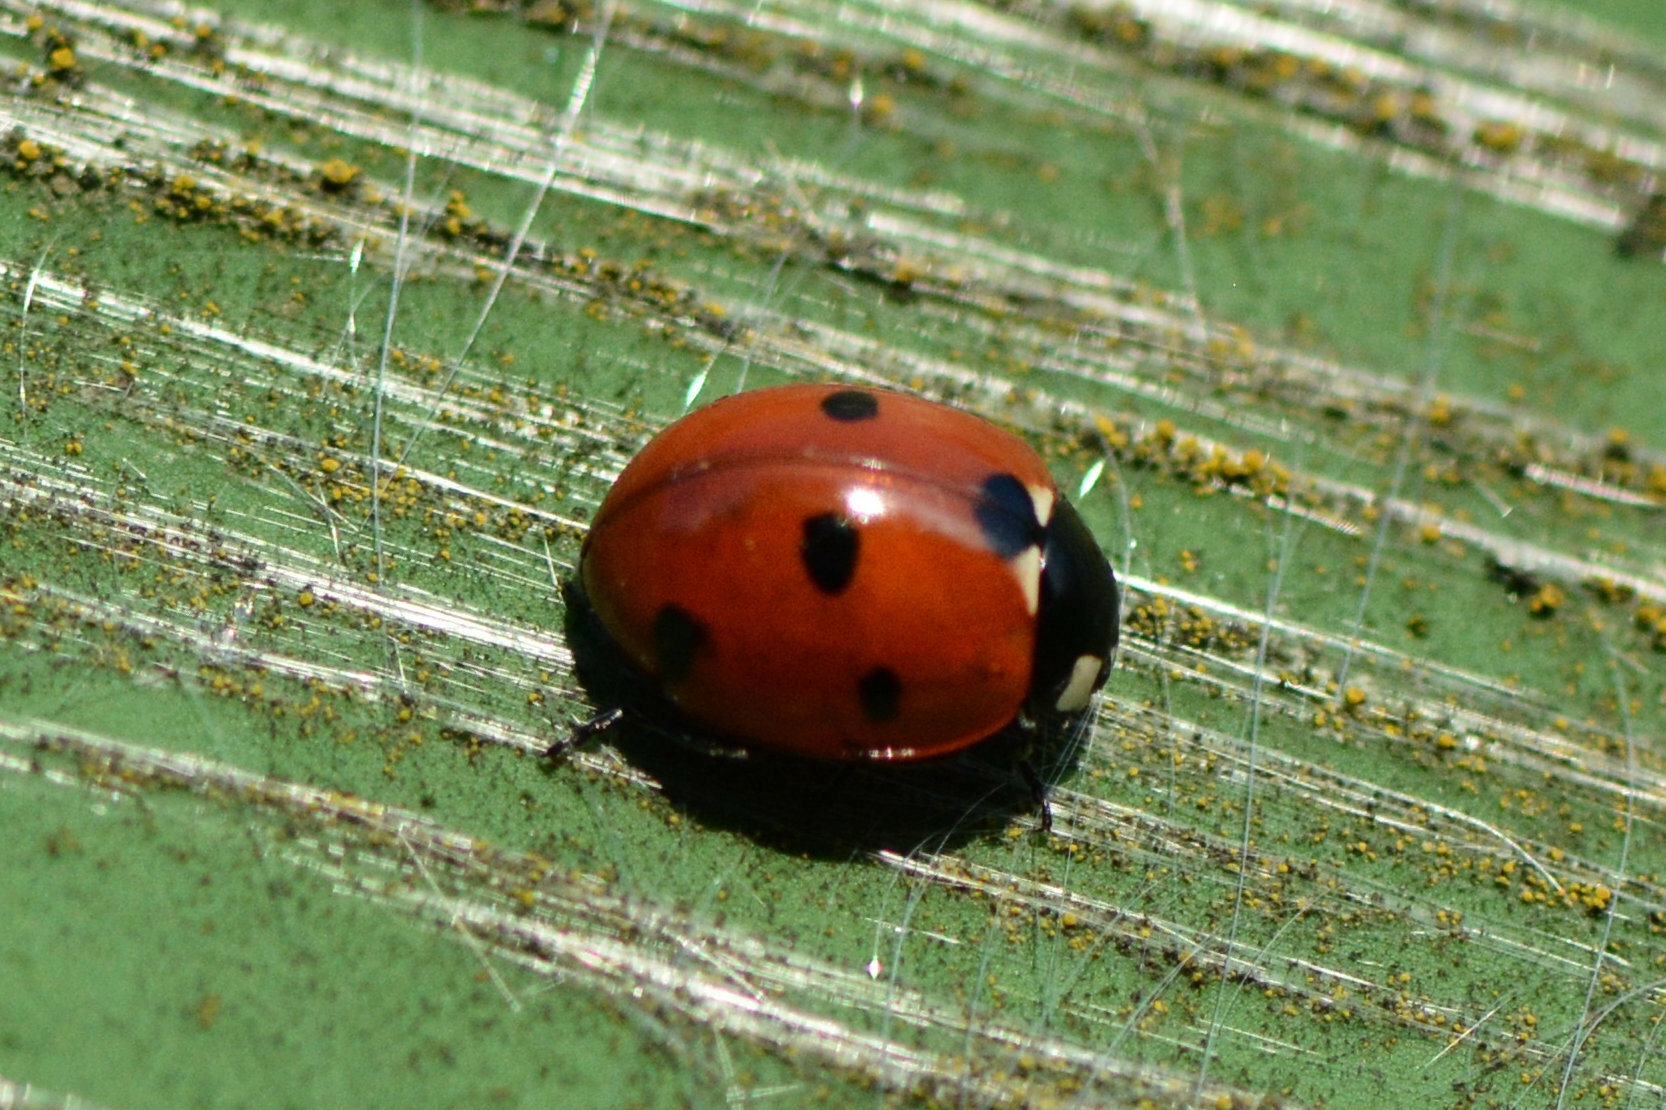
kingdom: Animalia
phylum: Arthropoda
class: Insecta
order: Coleoptera
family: Coccinellidae
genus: Coccinella
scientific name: Coccinella septempunctata
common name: Sevenspotted lady beetle
